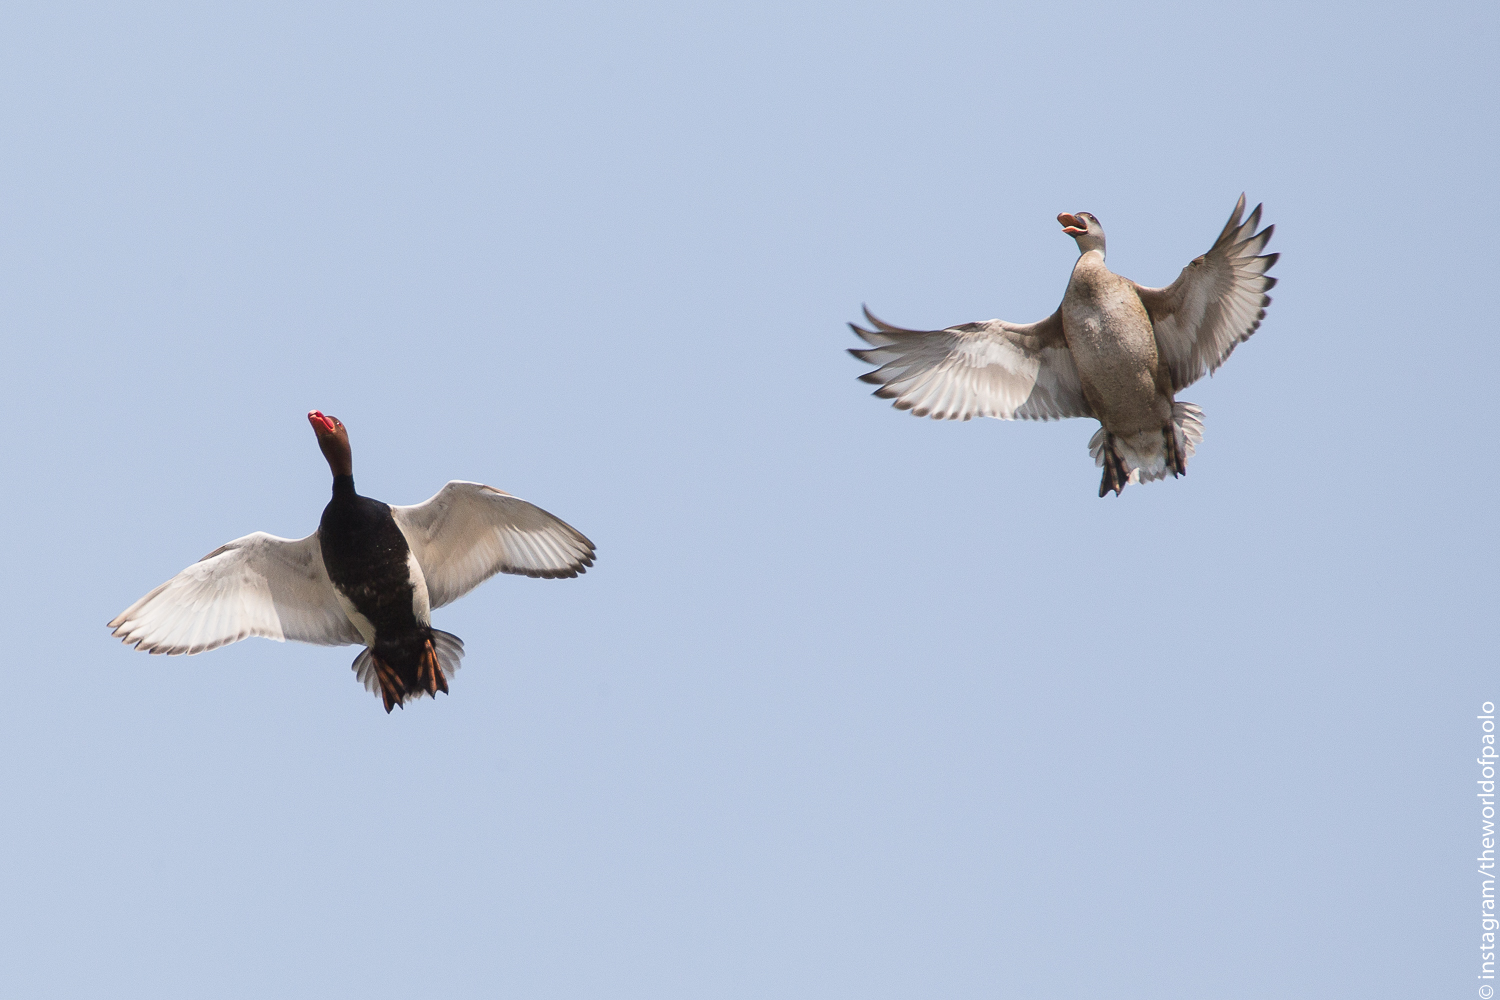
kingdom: Animalia
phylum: Chordata
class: Aves
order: Anseriformes
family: Anatidae
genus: Netta
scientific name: Netta rufina
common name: Red-crested pochard
